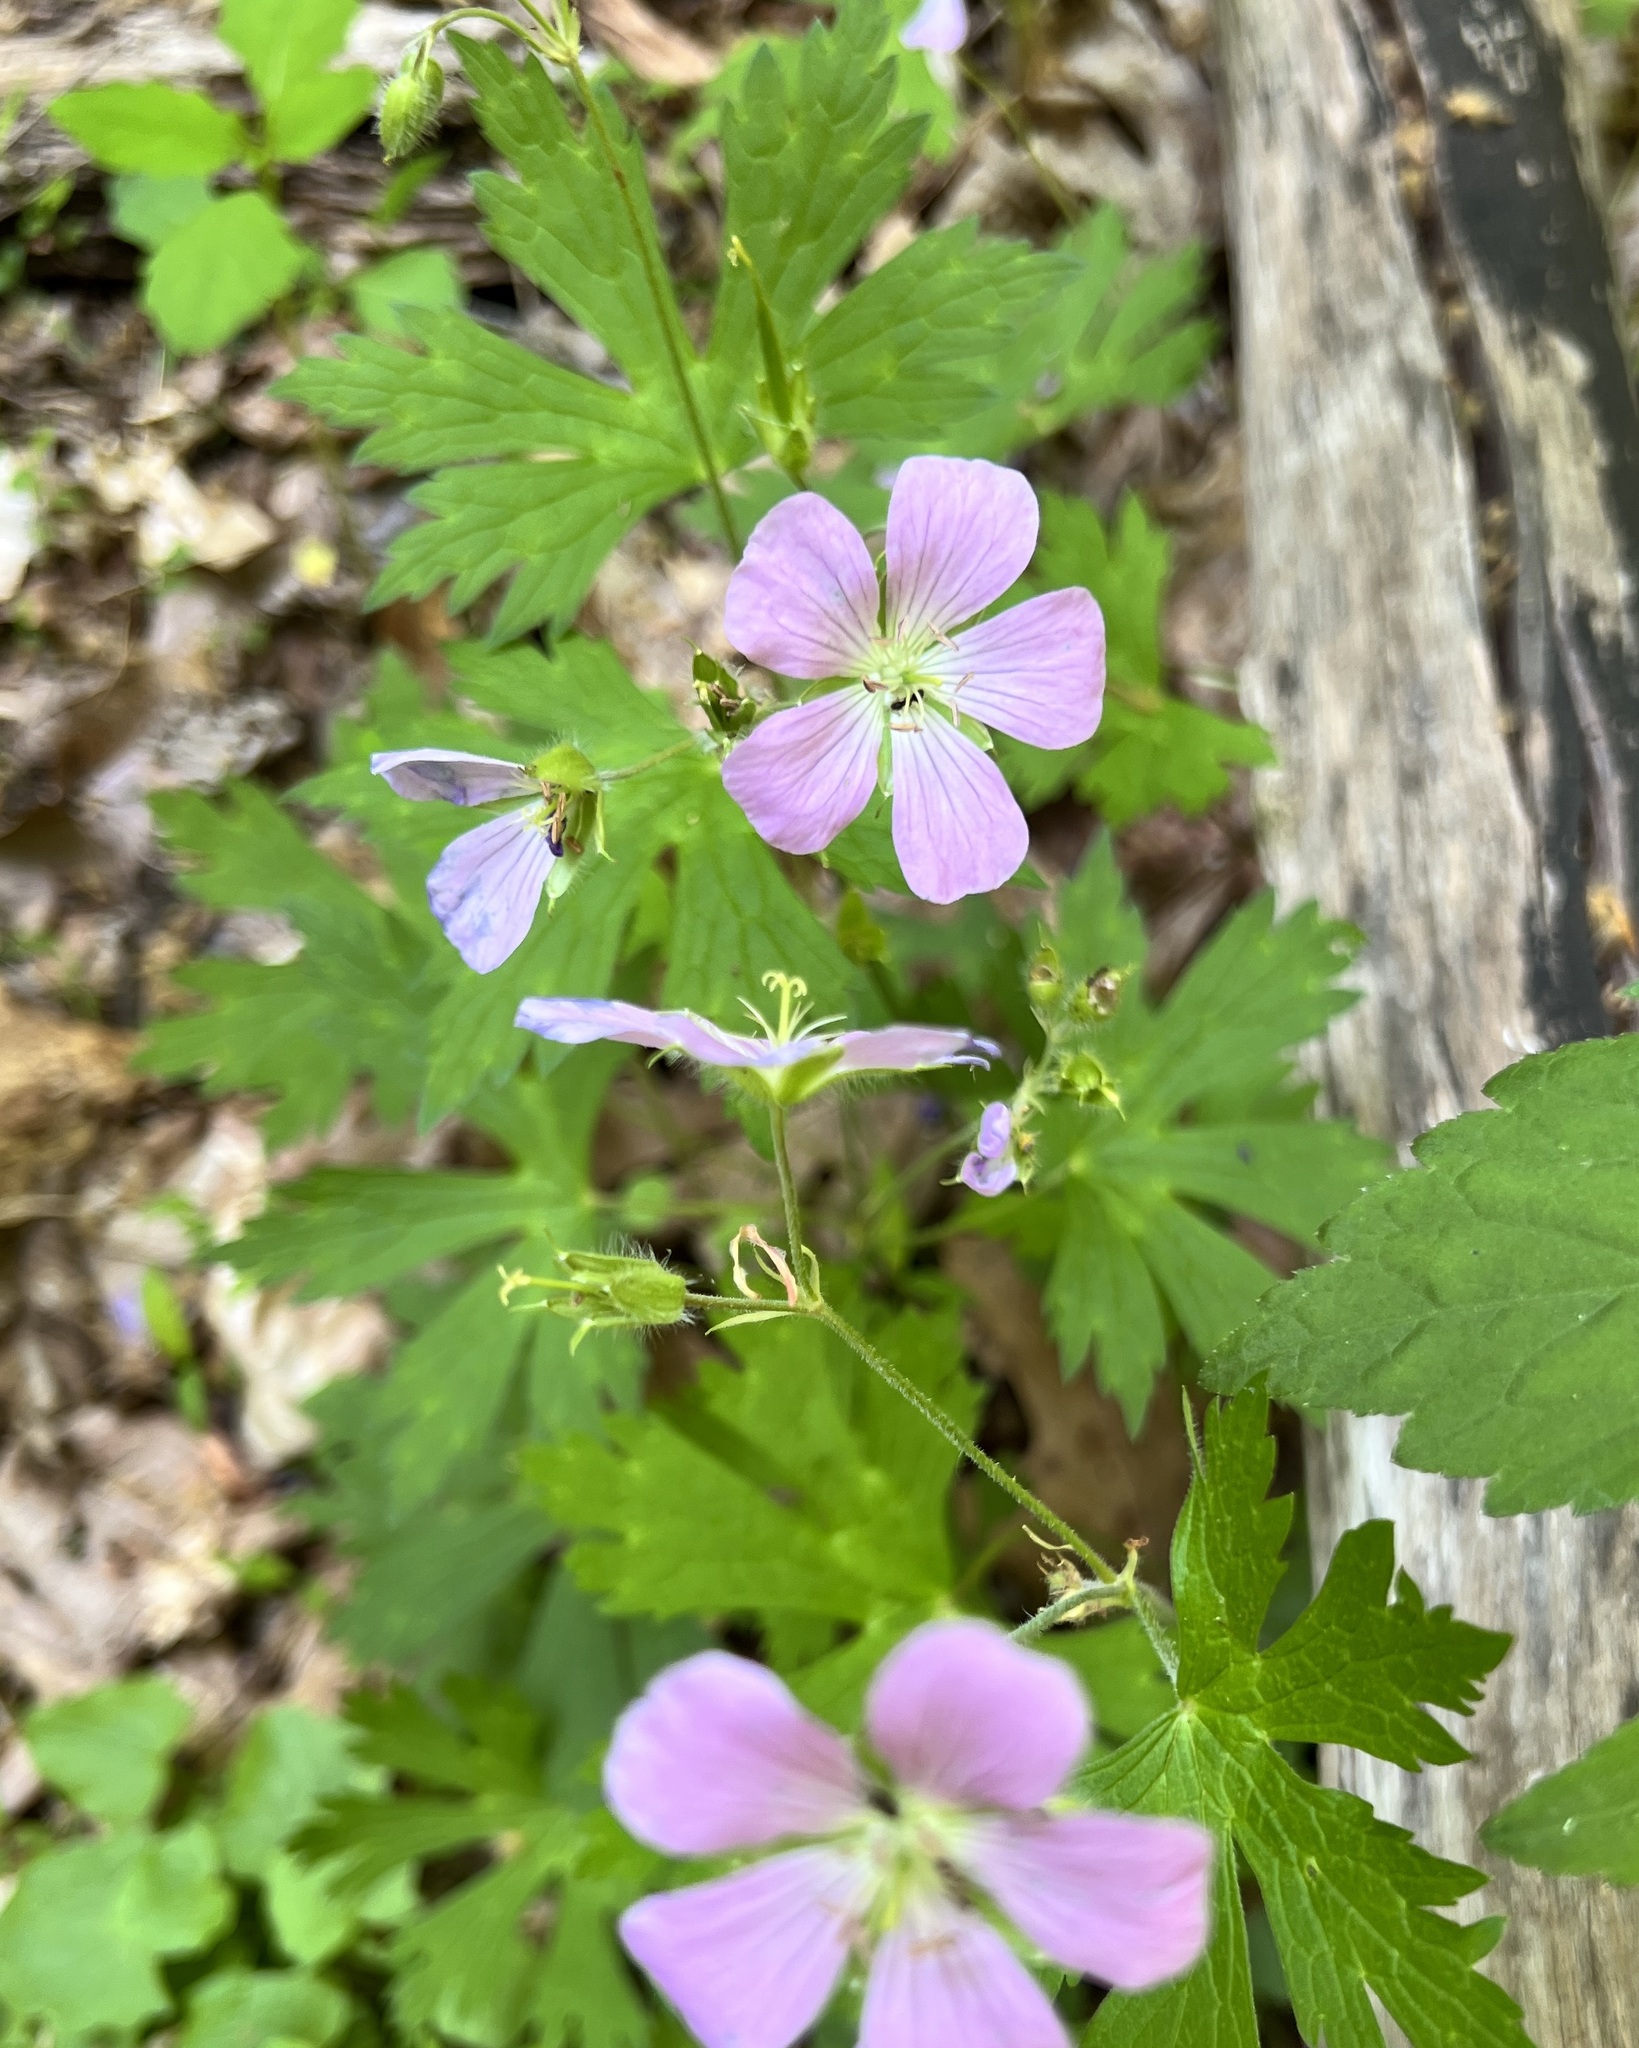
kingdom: Plantae
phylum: Tracheophyta
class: Magnoliopsida
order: Geraniales
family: Geraniaceae
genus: Geranium
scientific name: Geranium maculatum
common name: Spotted geranium
